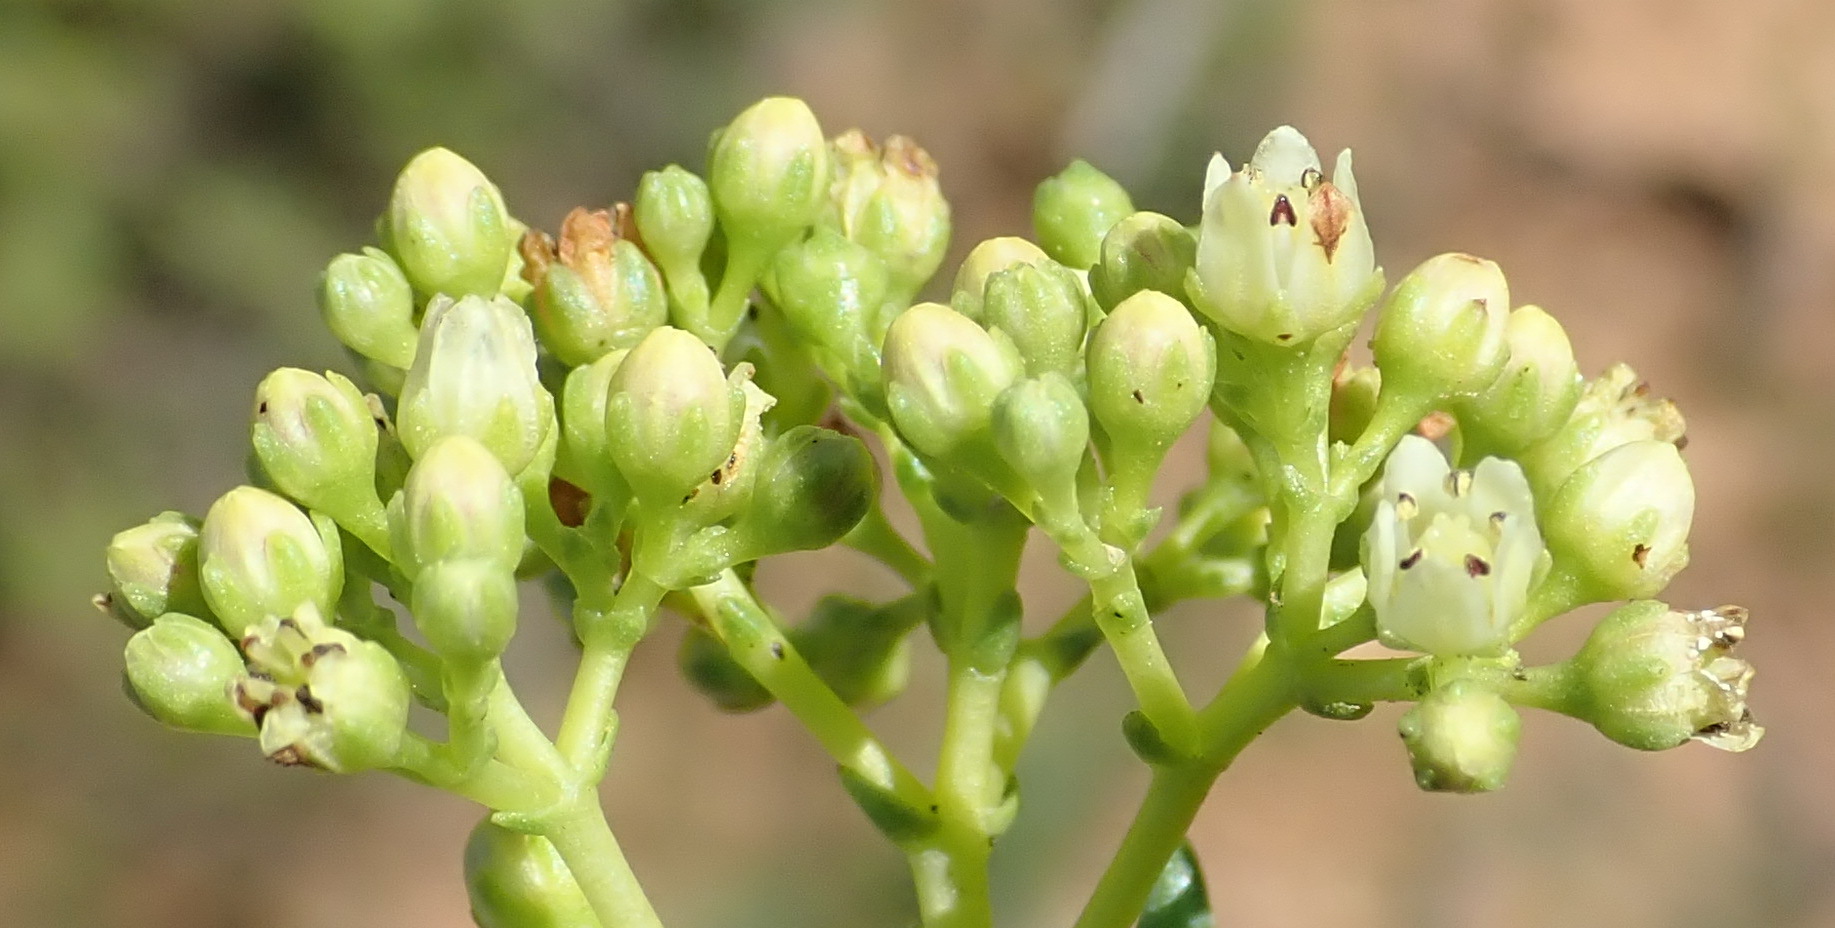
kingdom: Plantae
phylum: Tracheophyta
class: Magnoliopsida
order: Saxifragales
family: Crassulaceae
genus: Crassula
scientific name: Crassula tetragona
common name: Pygmyweed
